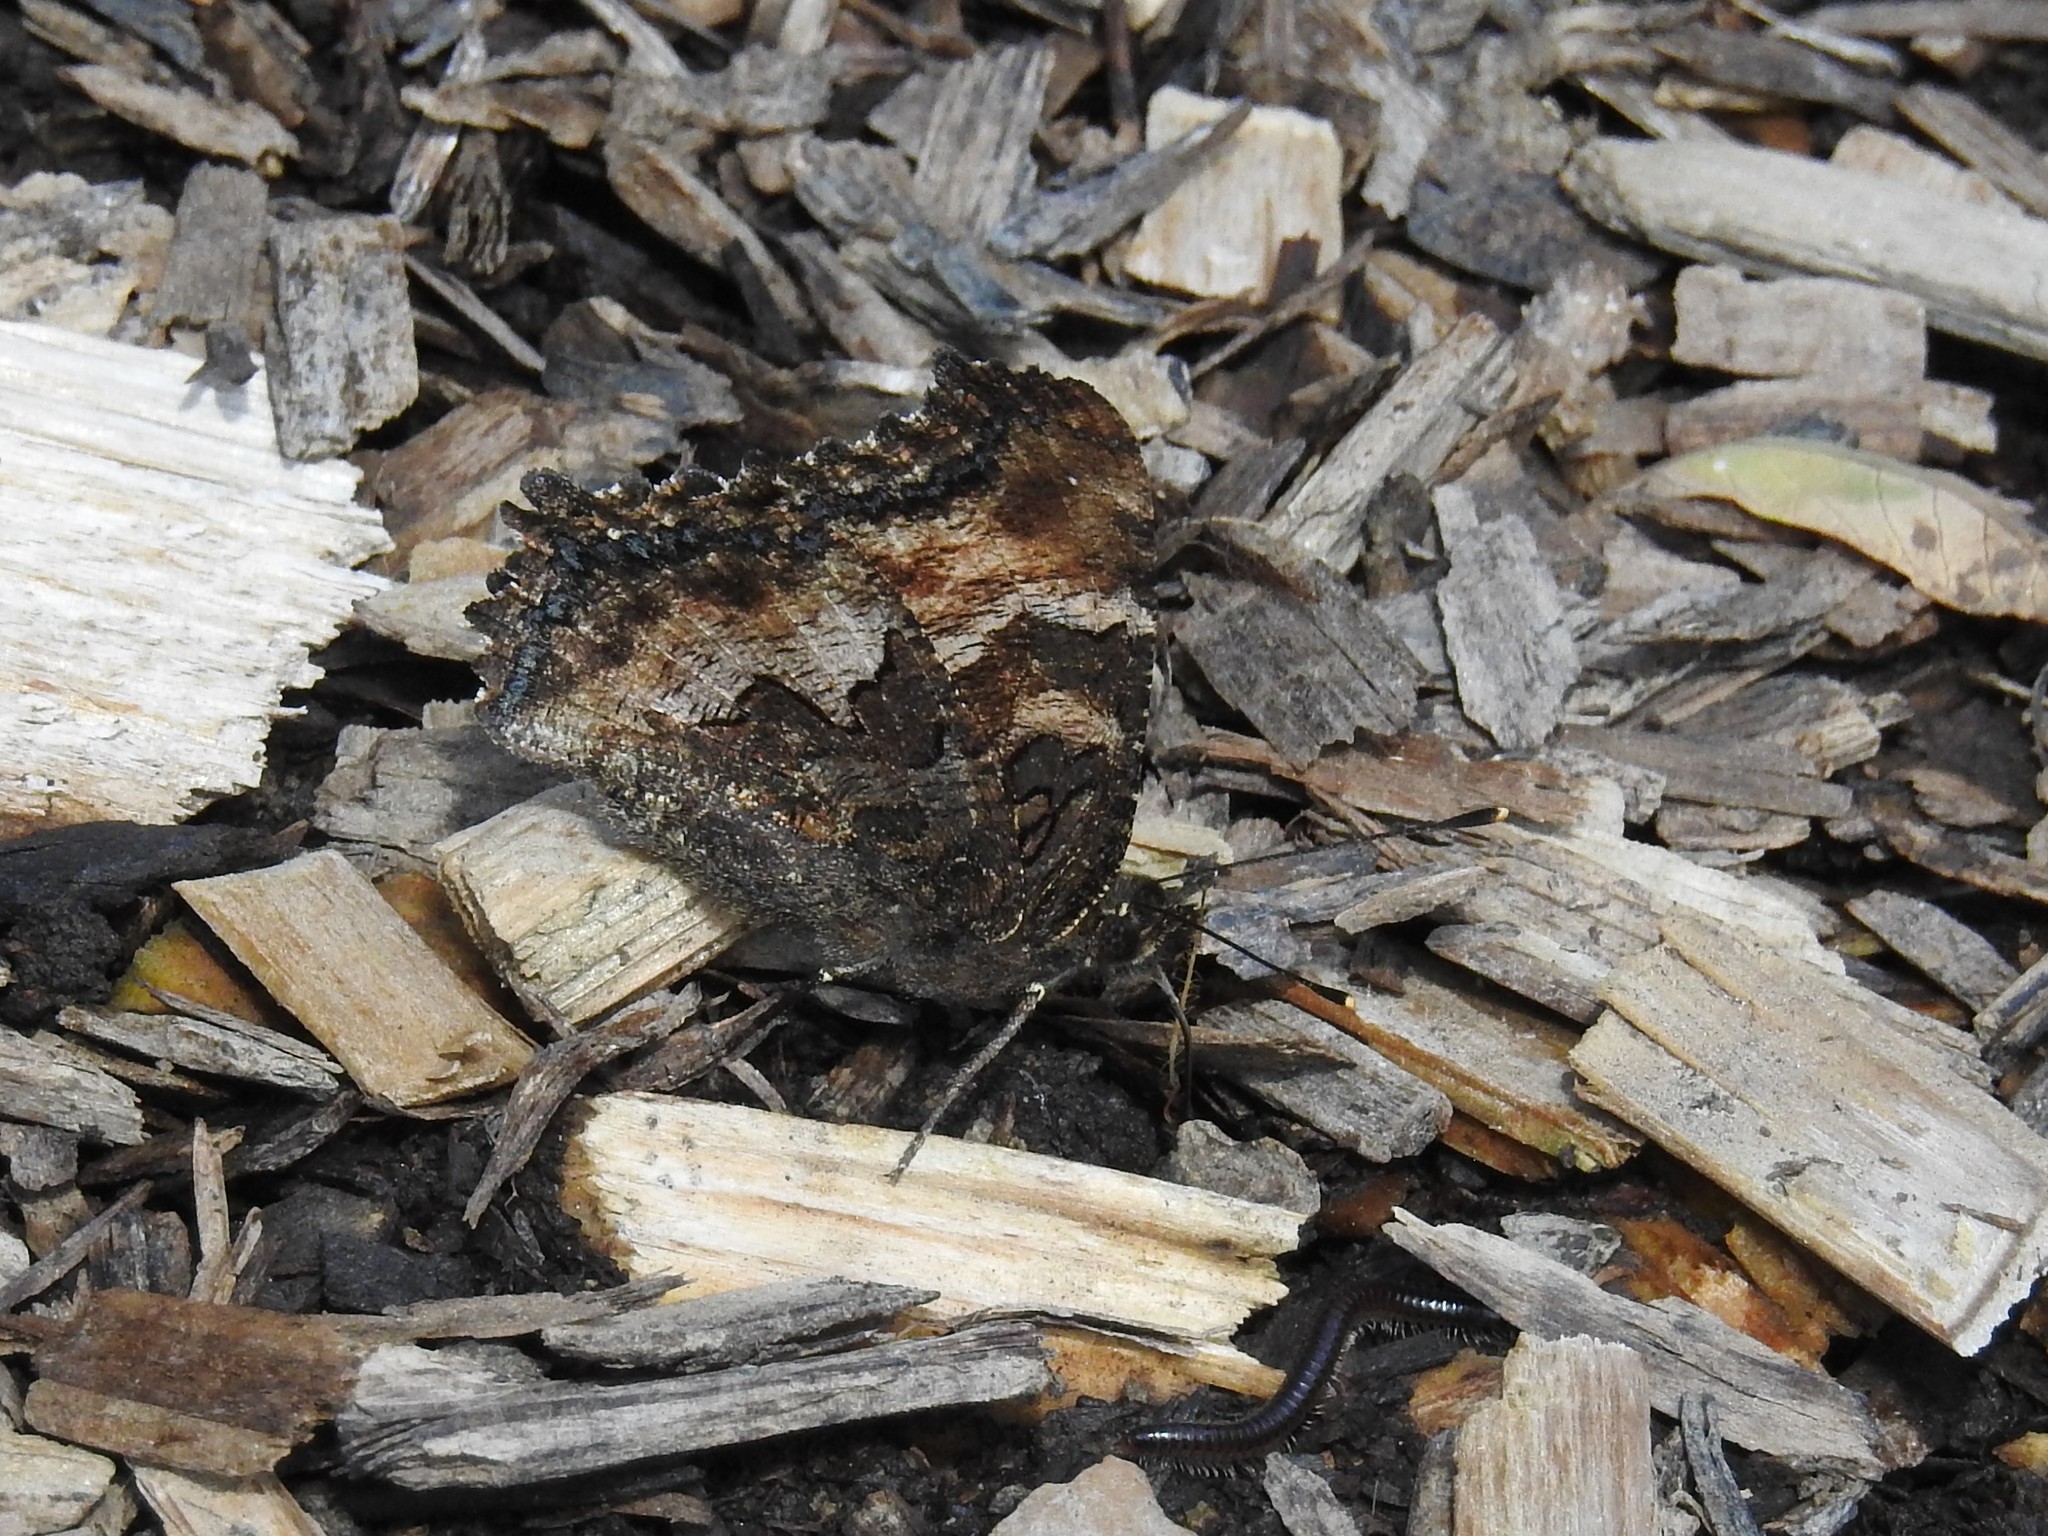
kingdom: Animalia
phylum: Arthropoda
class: Insecta
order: Lepidoptera
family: Nymphalidae
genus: Nymphalis
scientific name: Nymphalis californica
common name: California tortoiseshell
